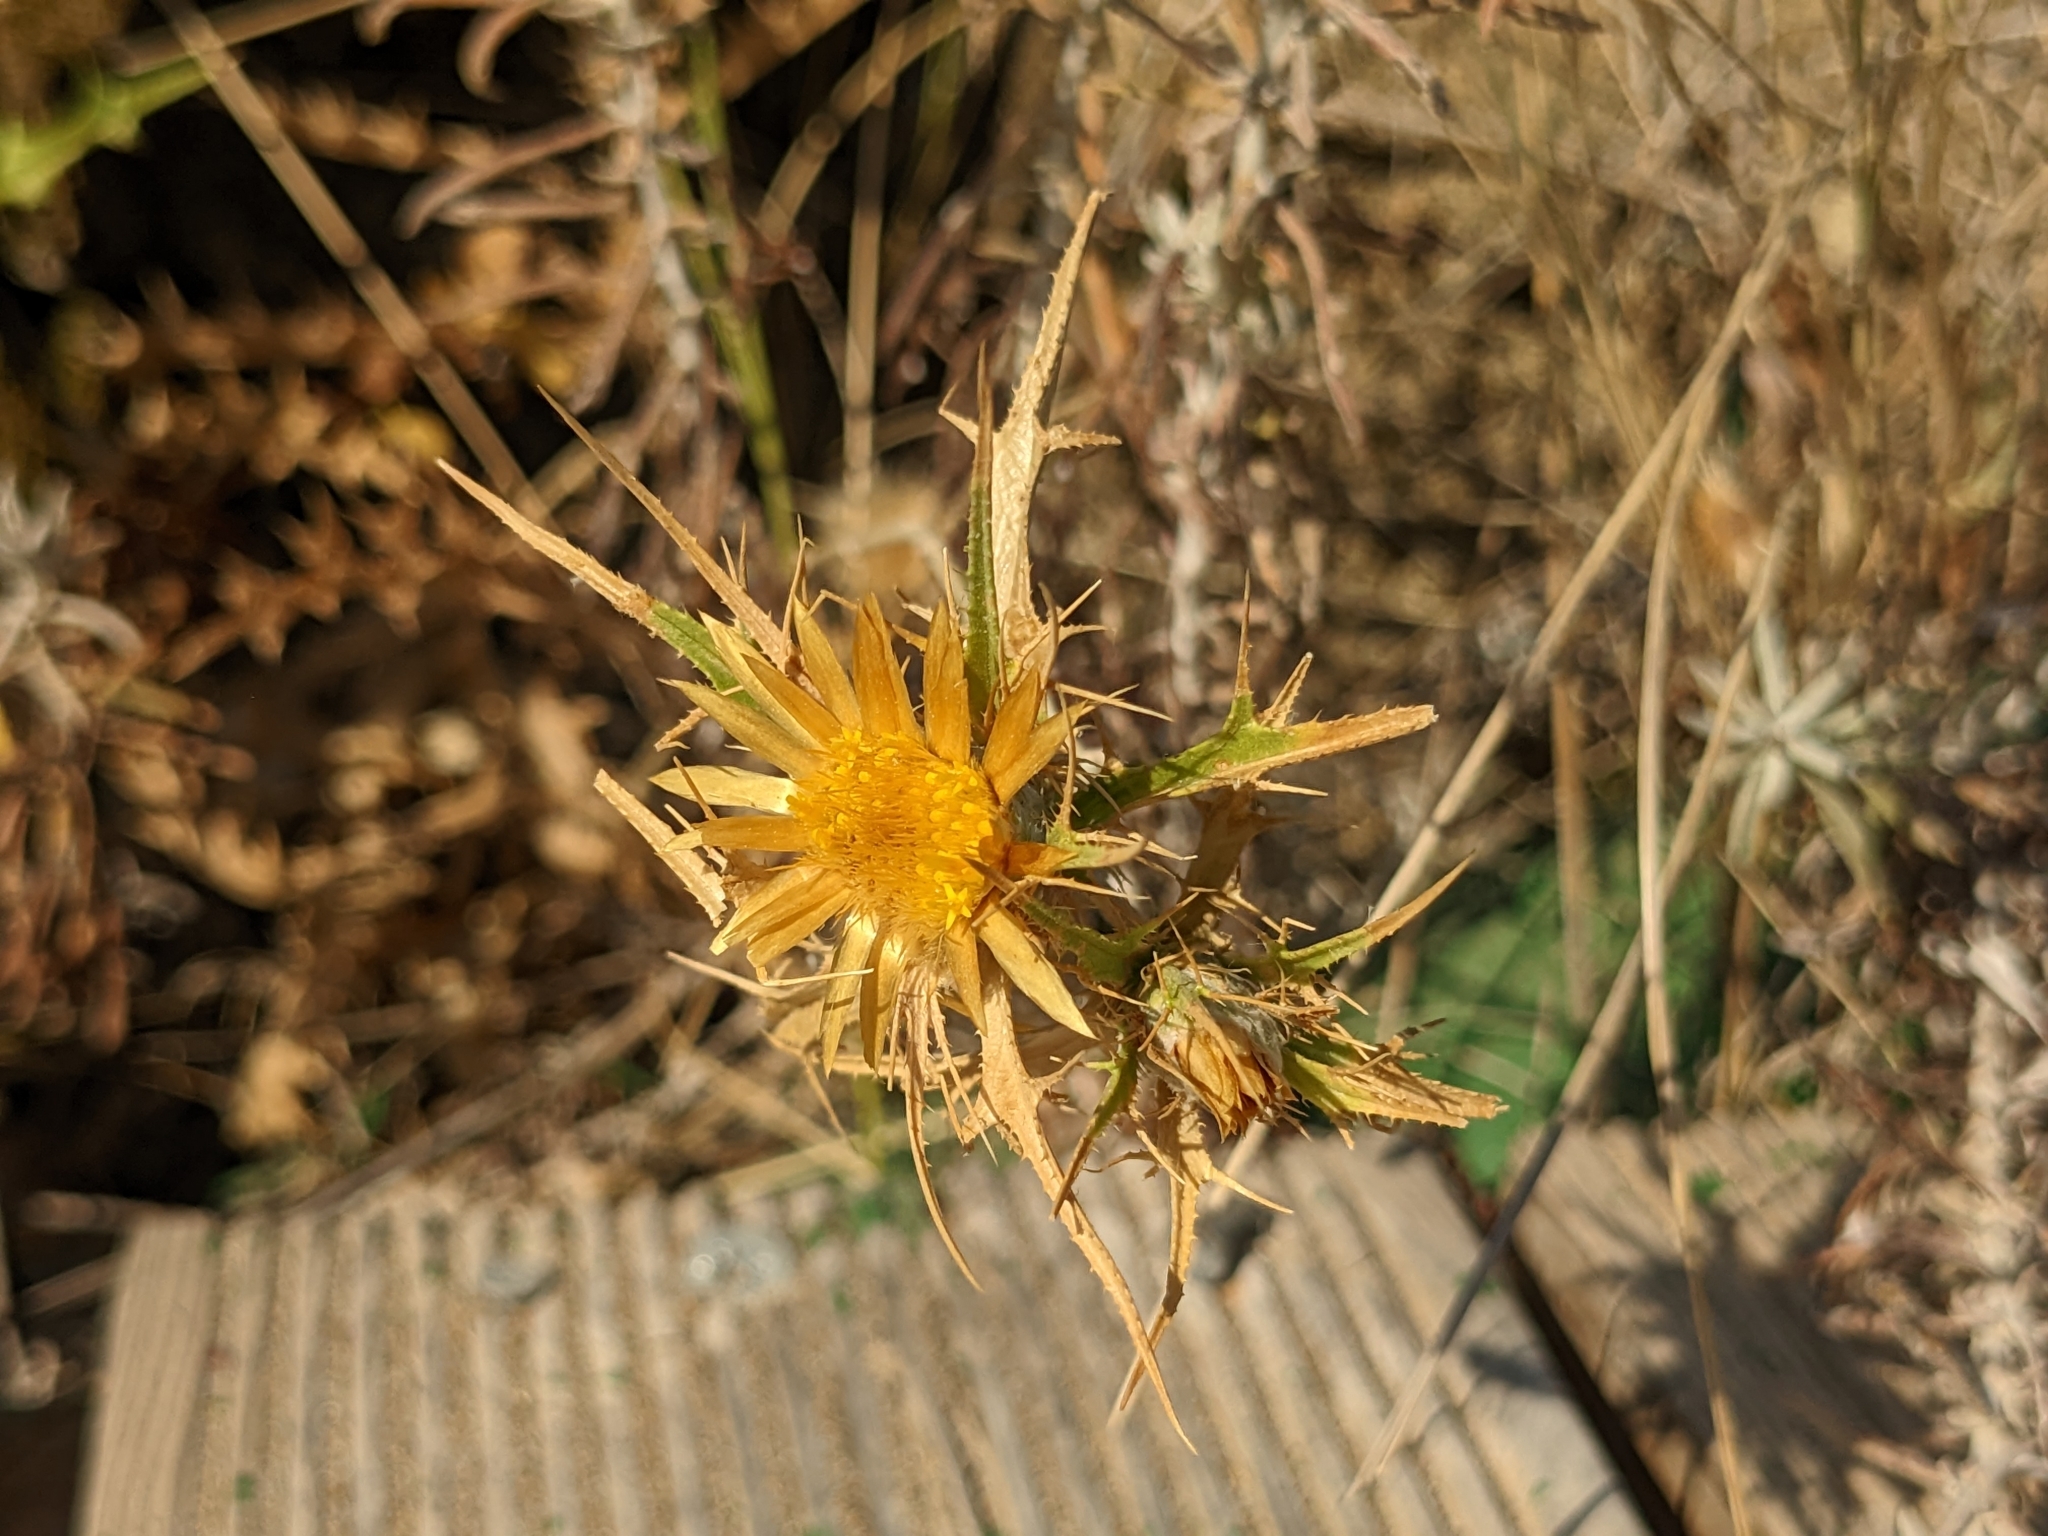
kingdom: Plantae
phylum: Tracheophyta
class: Magnoliopsida
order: Asterales
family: Asteraceae
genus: Carlina
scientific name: Carlina graeca
